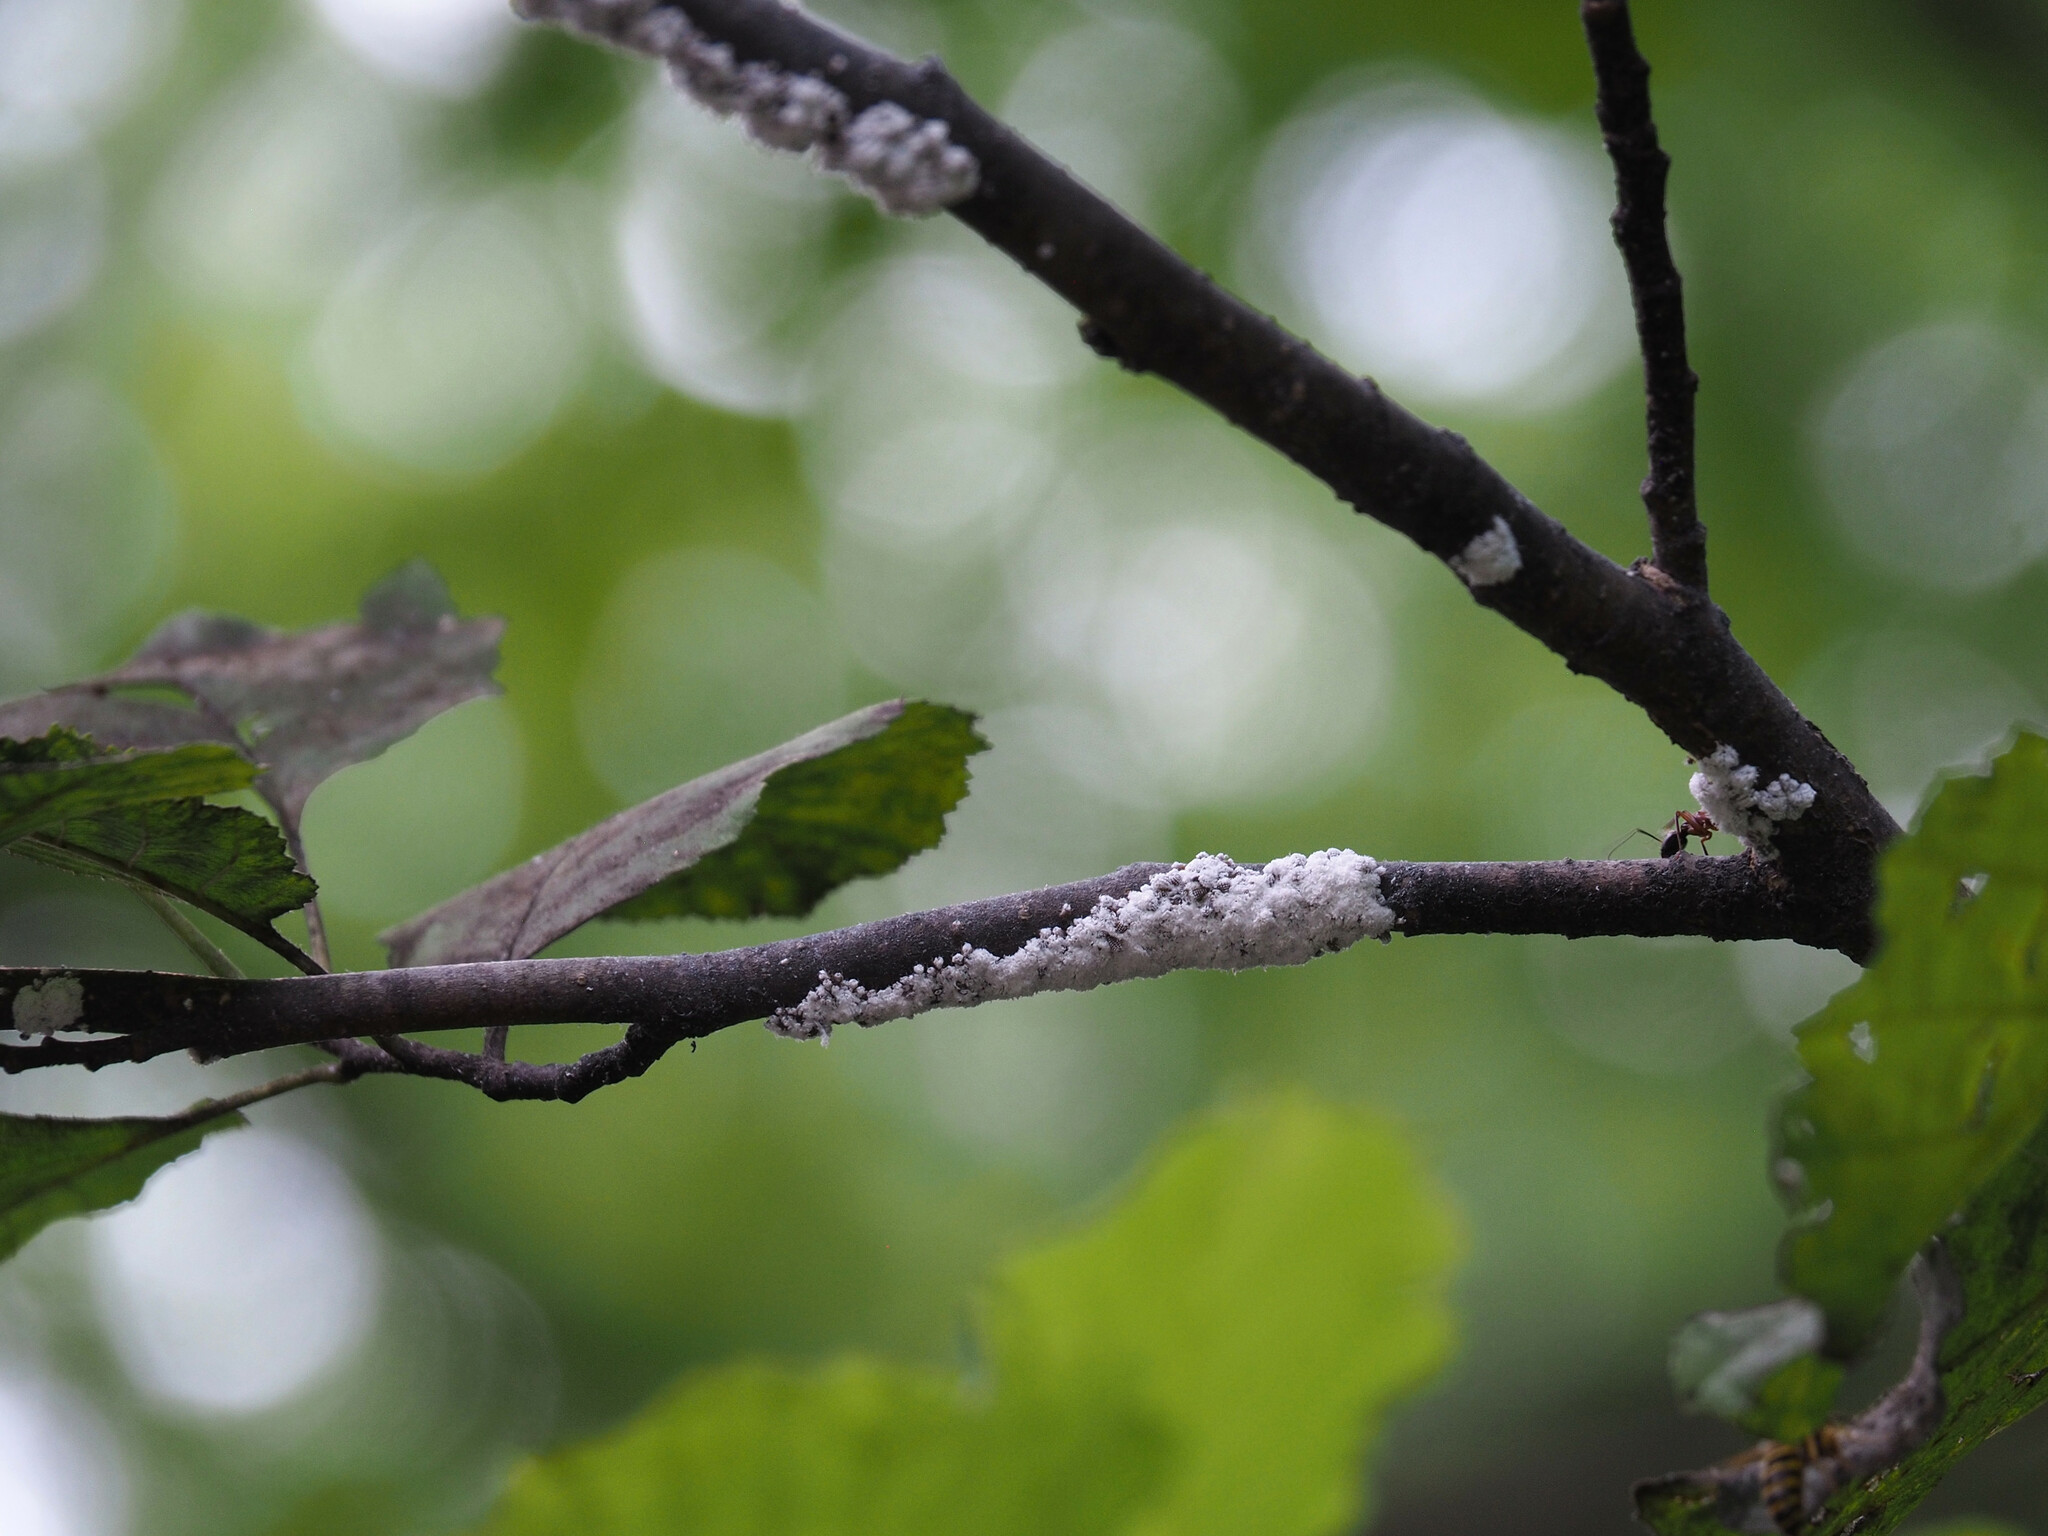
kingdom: Animalia
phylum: Arthropoda
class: Insecta
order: Hemiptera
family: Aphididae
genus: Prociphilus
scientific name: Prociphilus tessellatus
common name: Woolly alder aphid
